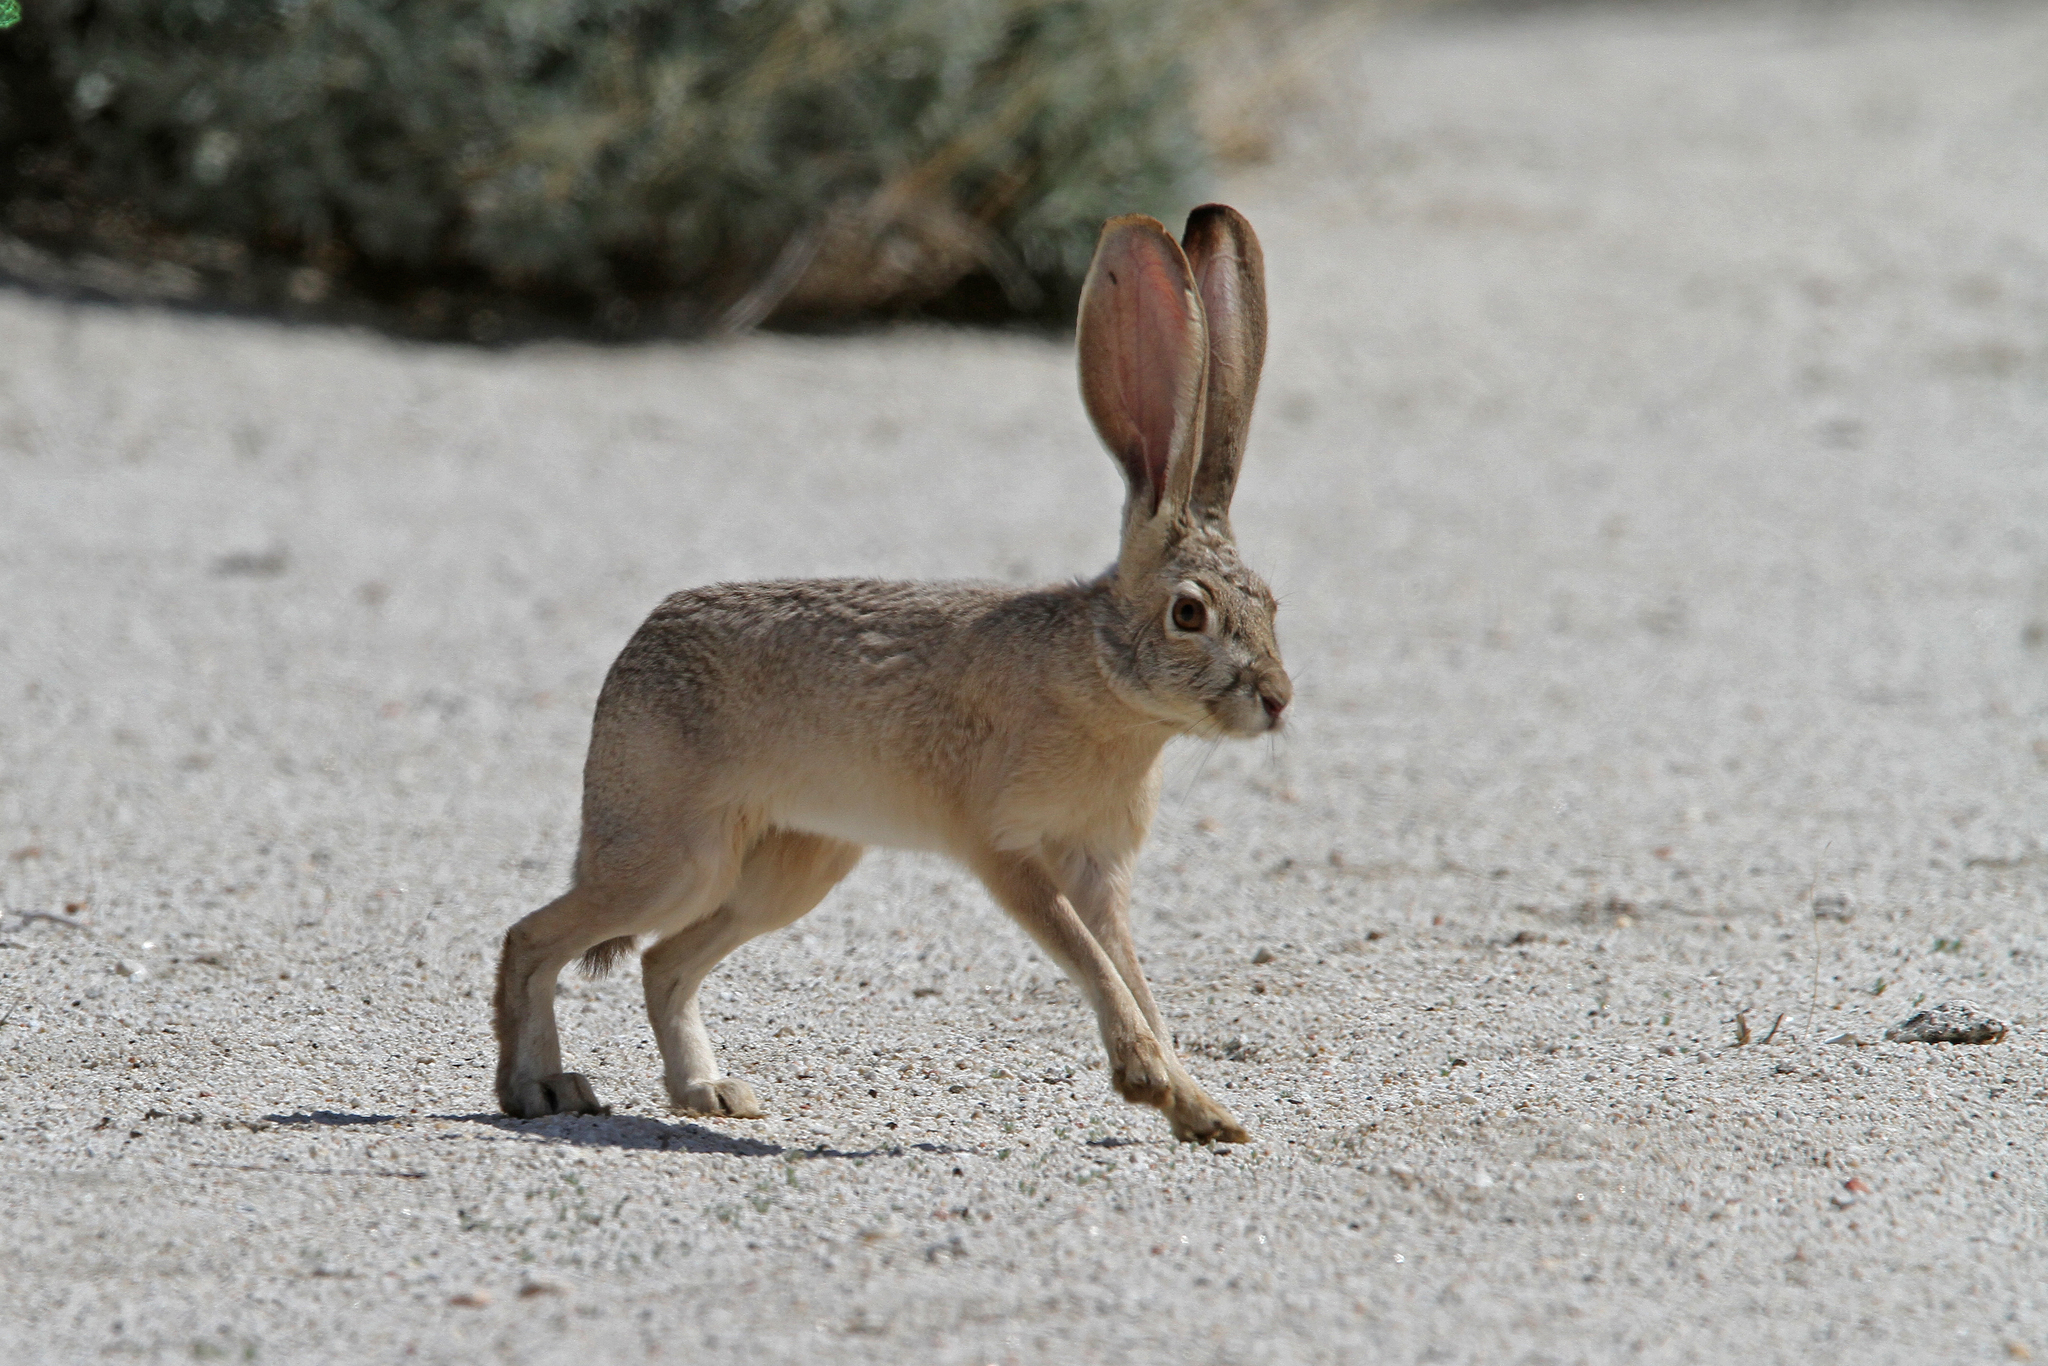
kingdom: Animalia
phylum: Chordata
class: Mammalia
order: Lagomorpha
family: Leporidae
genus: Lepus
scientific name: Lepus californicus
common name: Black-tailed jackrabbit
